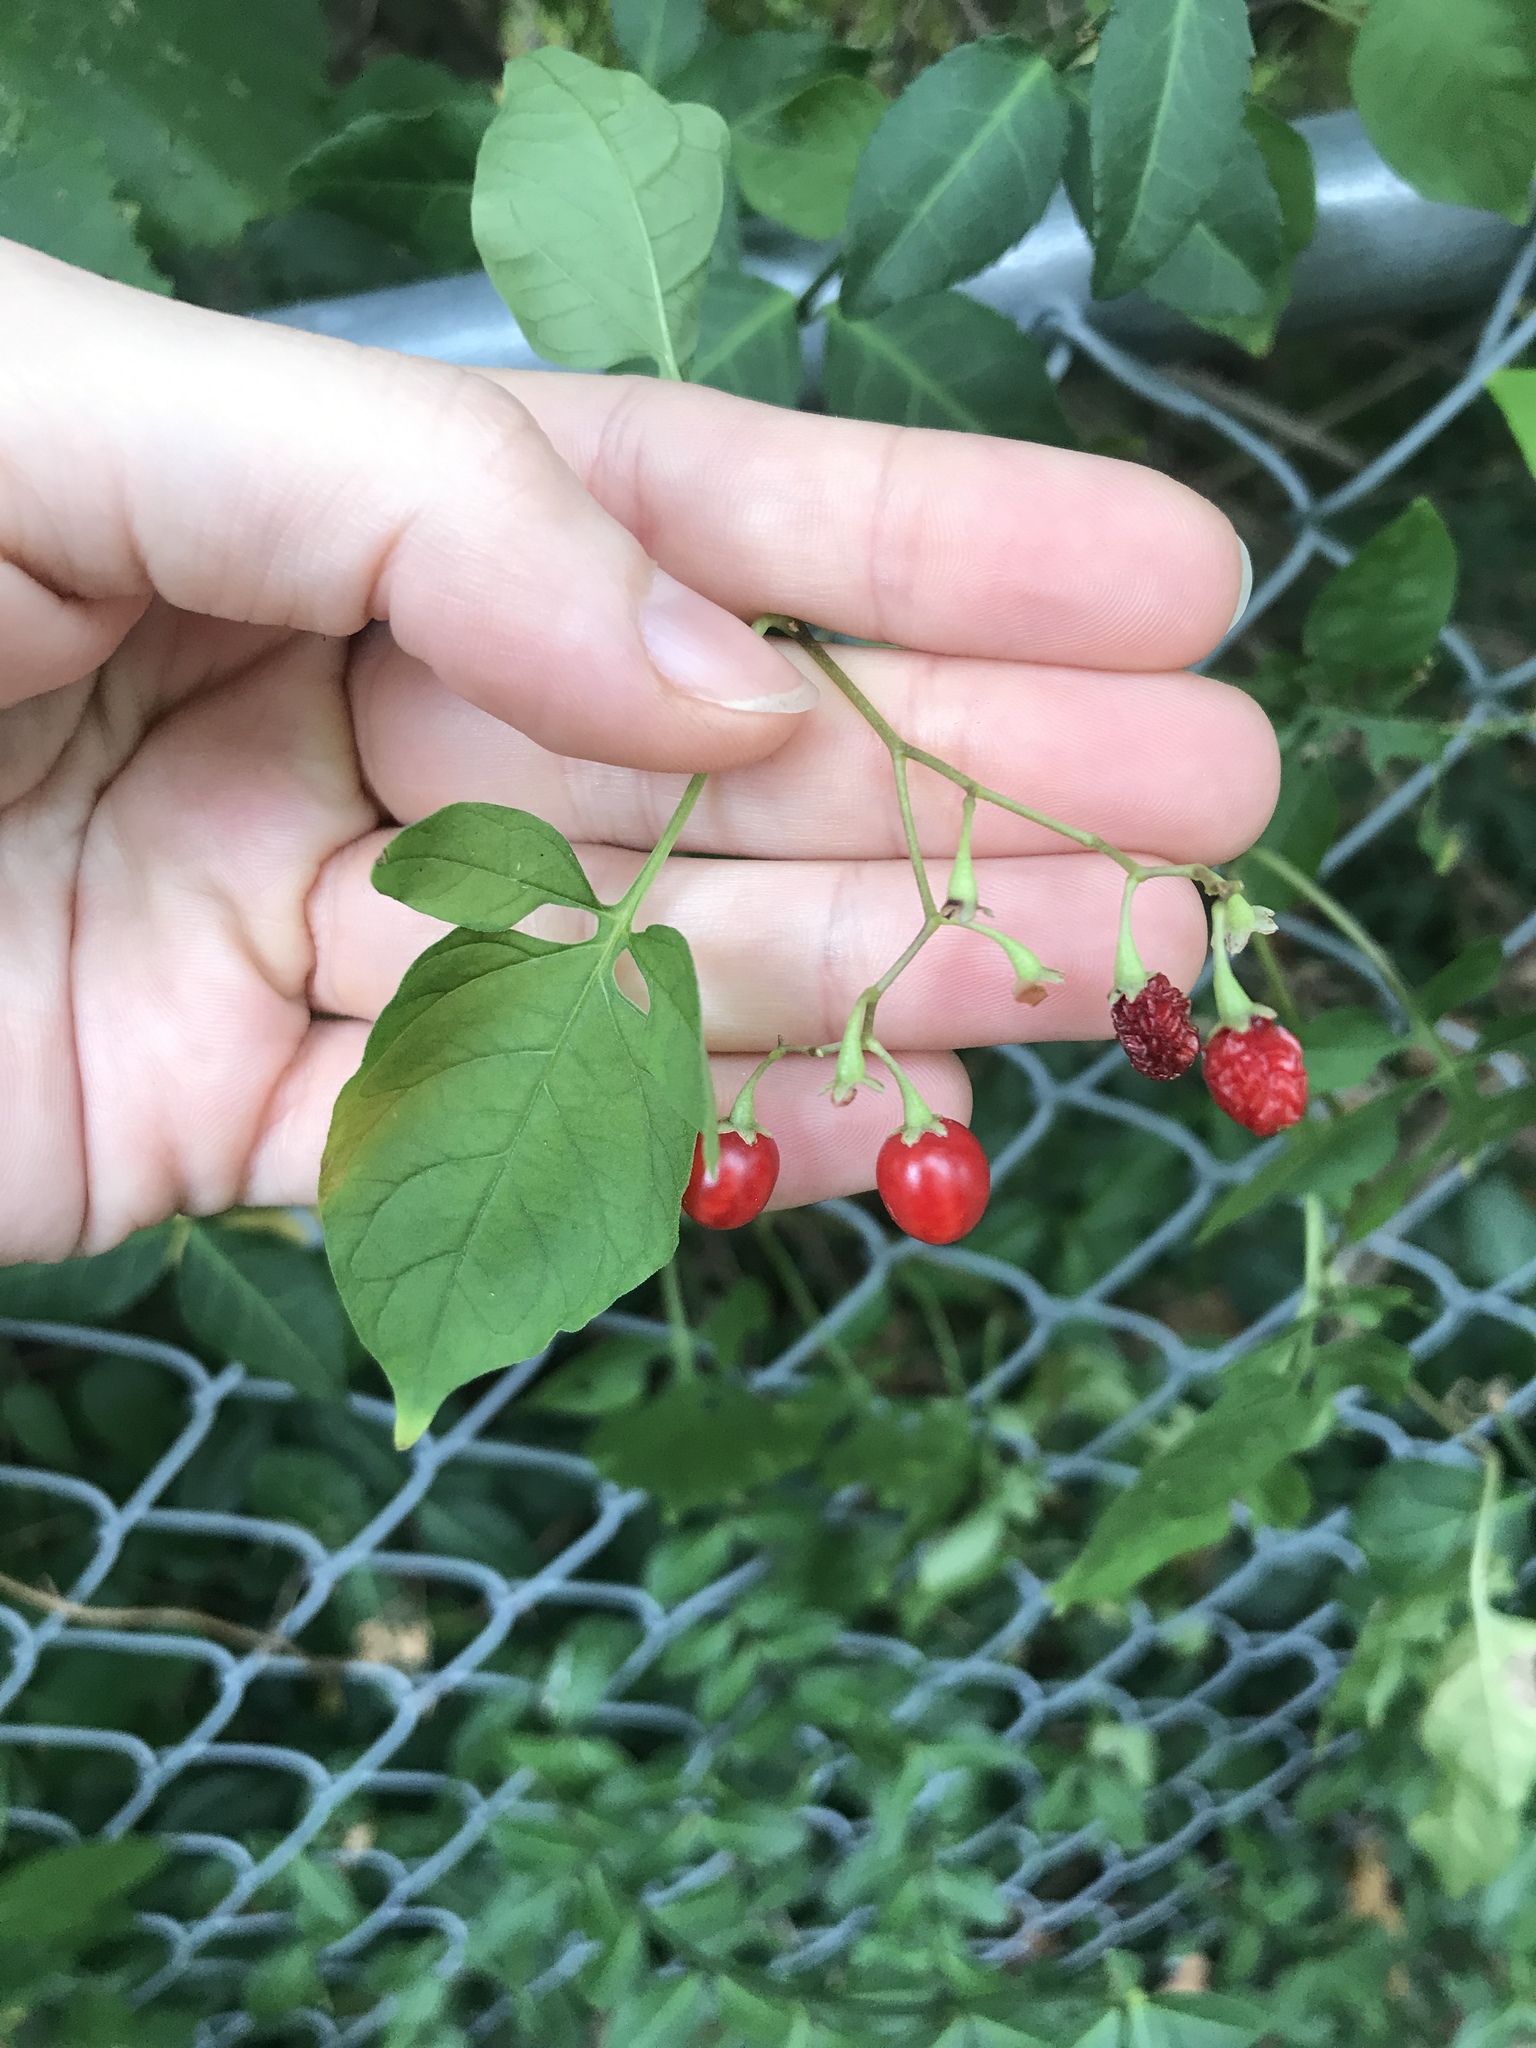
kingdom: Plantae
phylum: Tracheophyta
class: Magnoliopsida
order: Solanales
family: Solanaceae
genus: Solanum
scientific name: Solanum dulcamara
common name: Climbing nightshade
